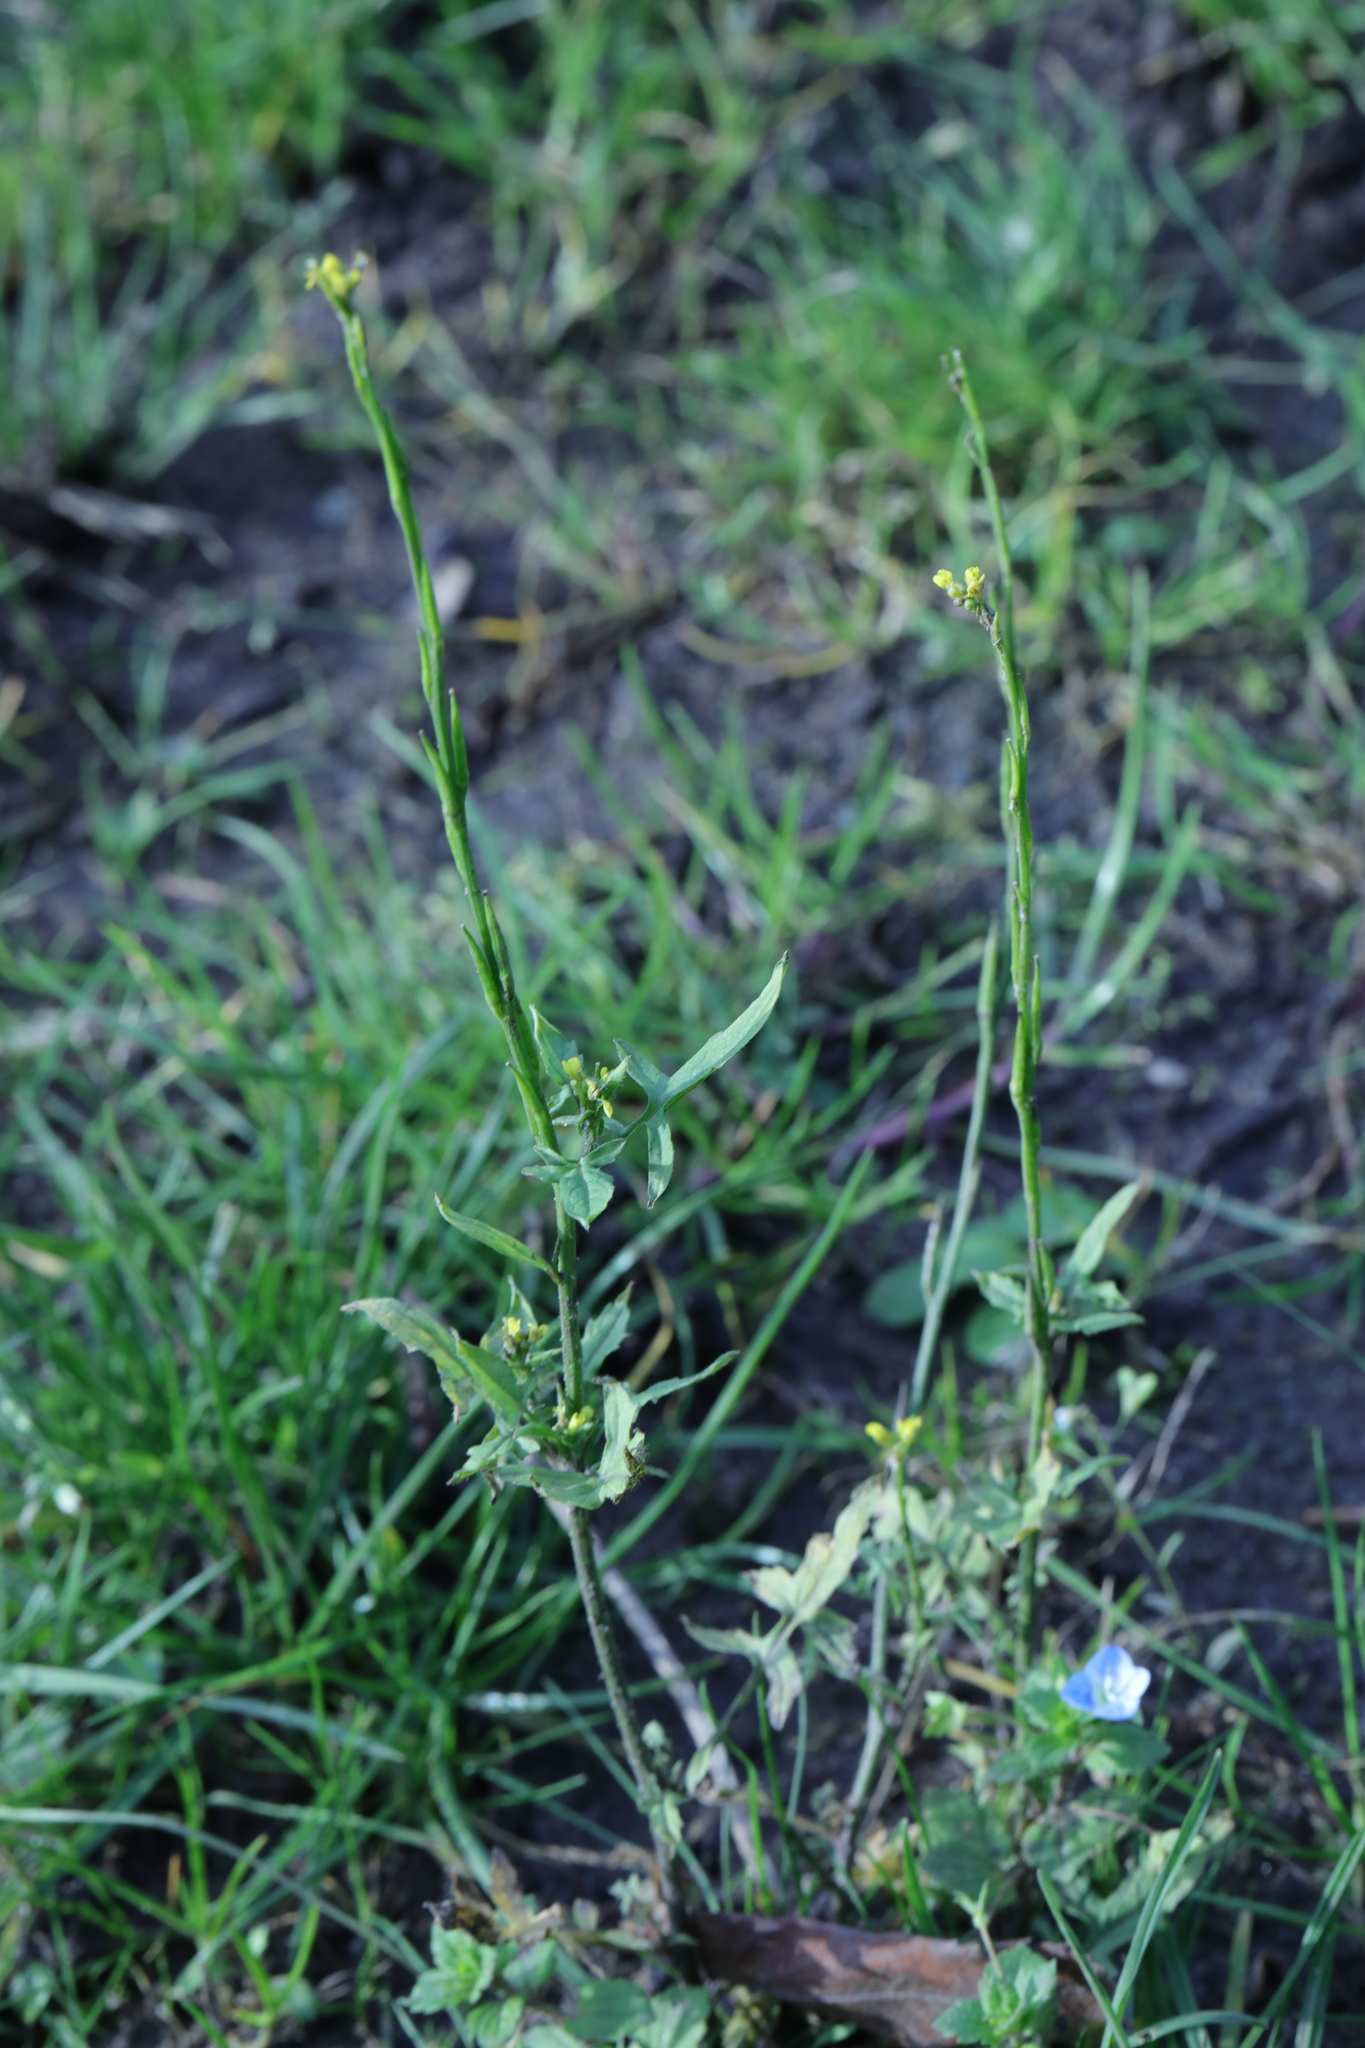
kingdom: Plantae
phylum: Tracheophyta
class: Magnoliopsida
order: Brassicales
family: Brassicaceae
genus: Sisymbrium
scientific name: Sisymbrium officinale
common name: Hedge mustard
